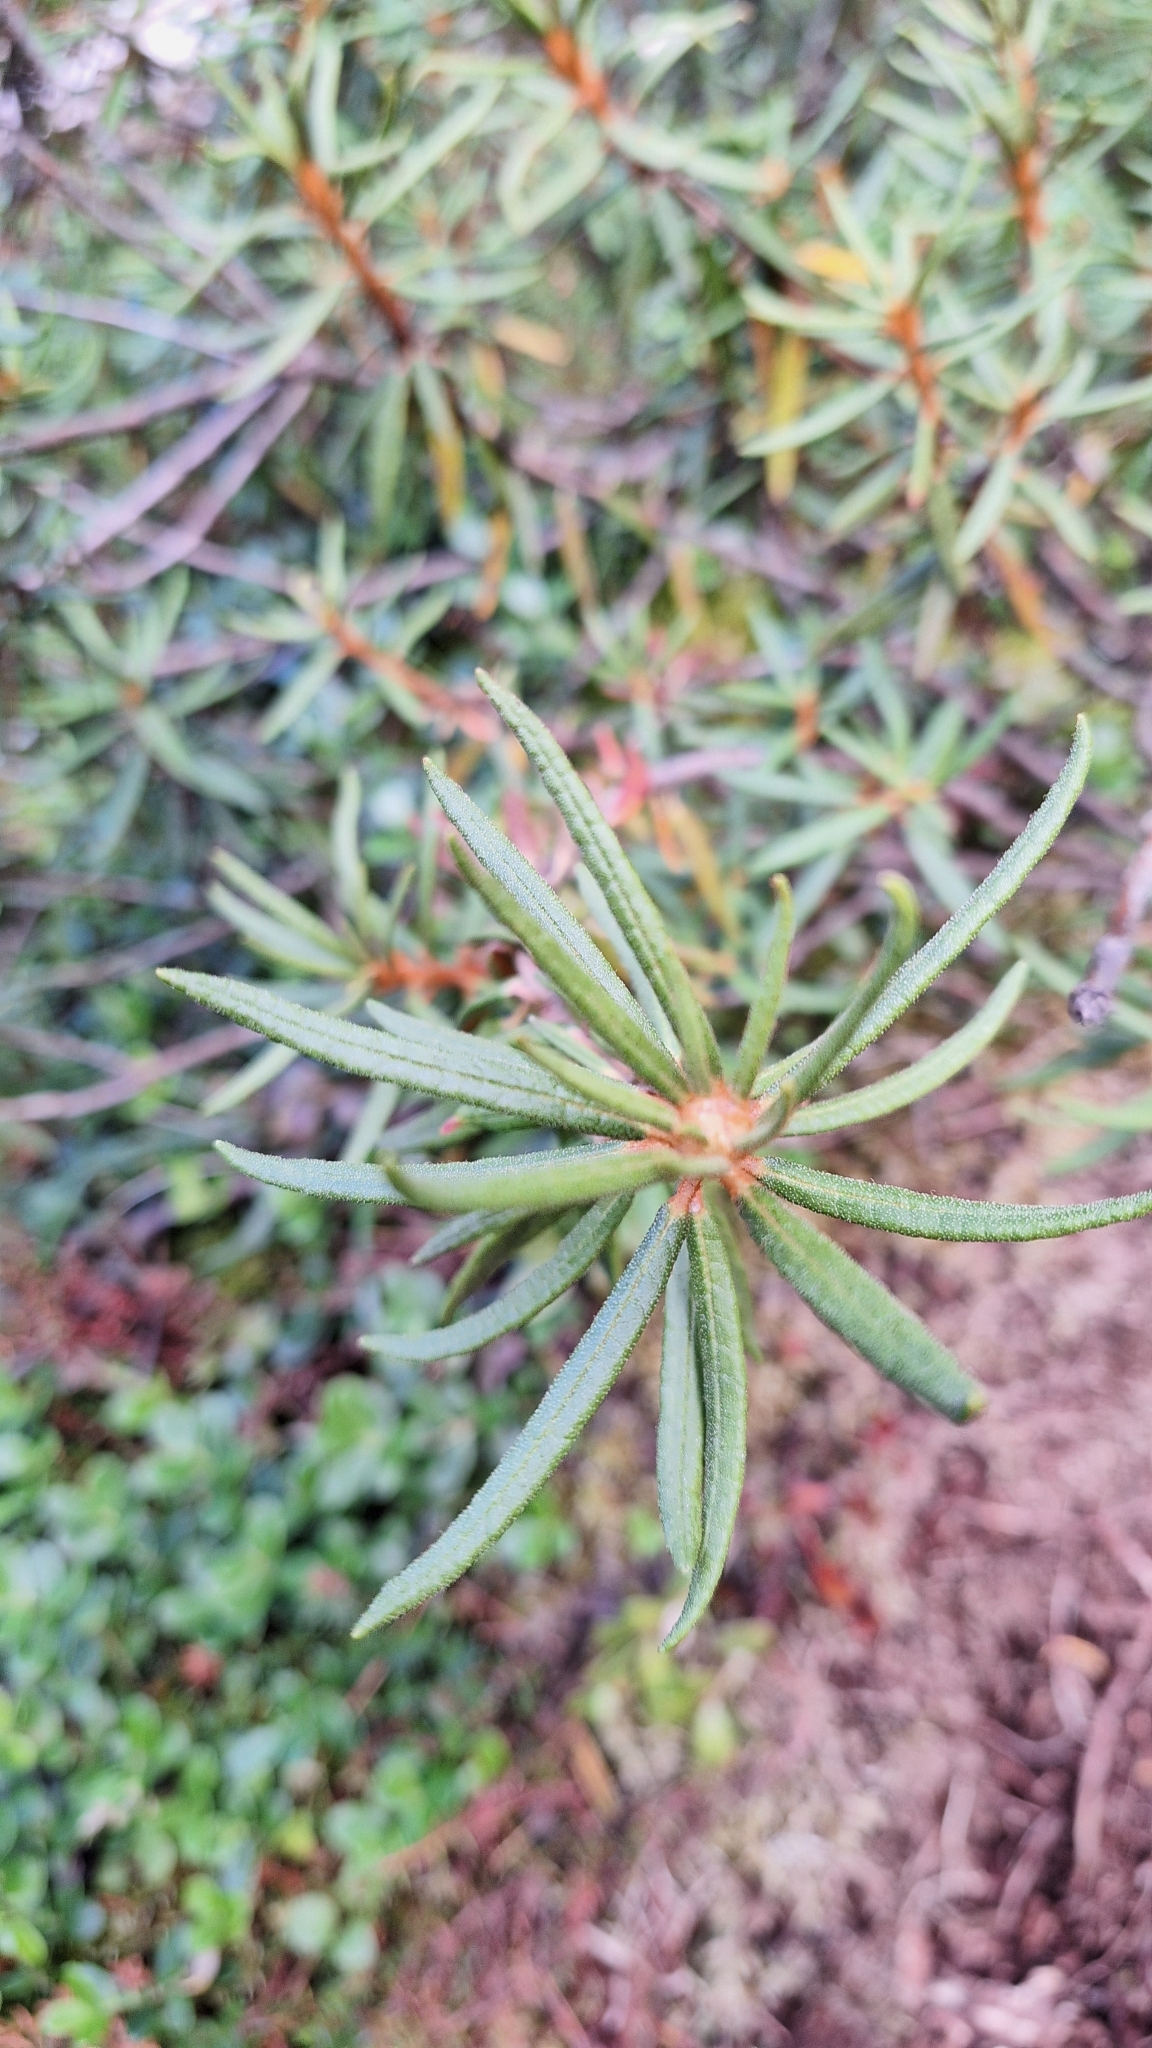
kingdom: Plantae
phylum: Tracheophyta
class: Magnoliopsida
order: Ericales
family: Ericaceae
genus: Rhododendron
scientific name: Rhododendron tomentosum
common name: Marsh labrador tea
